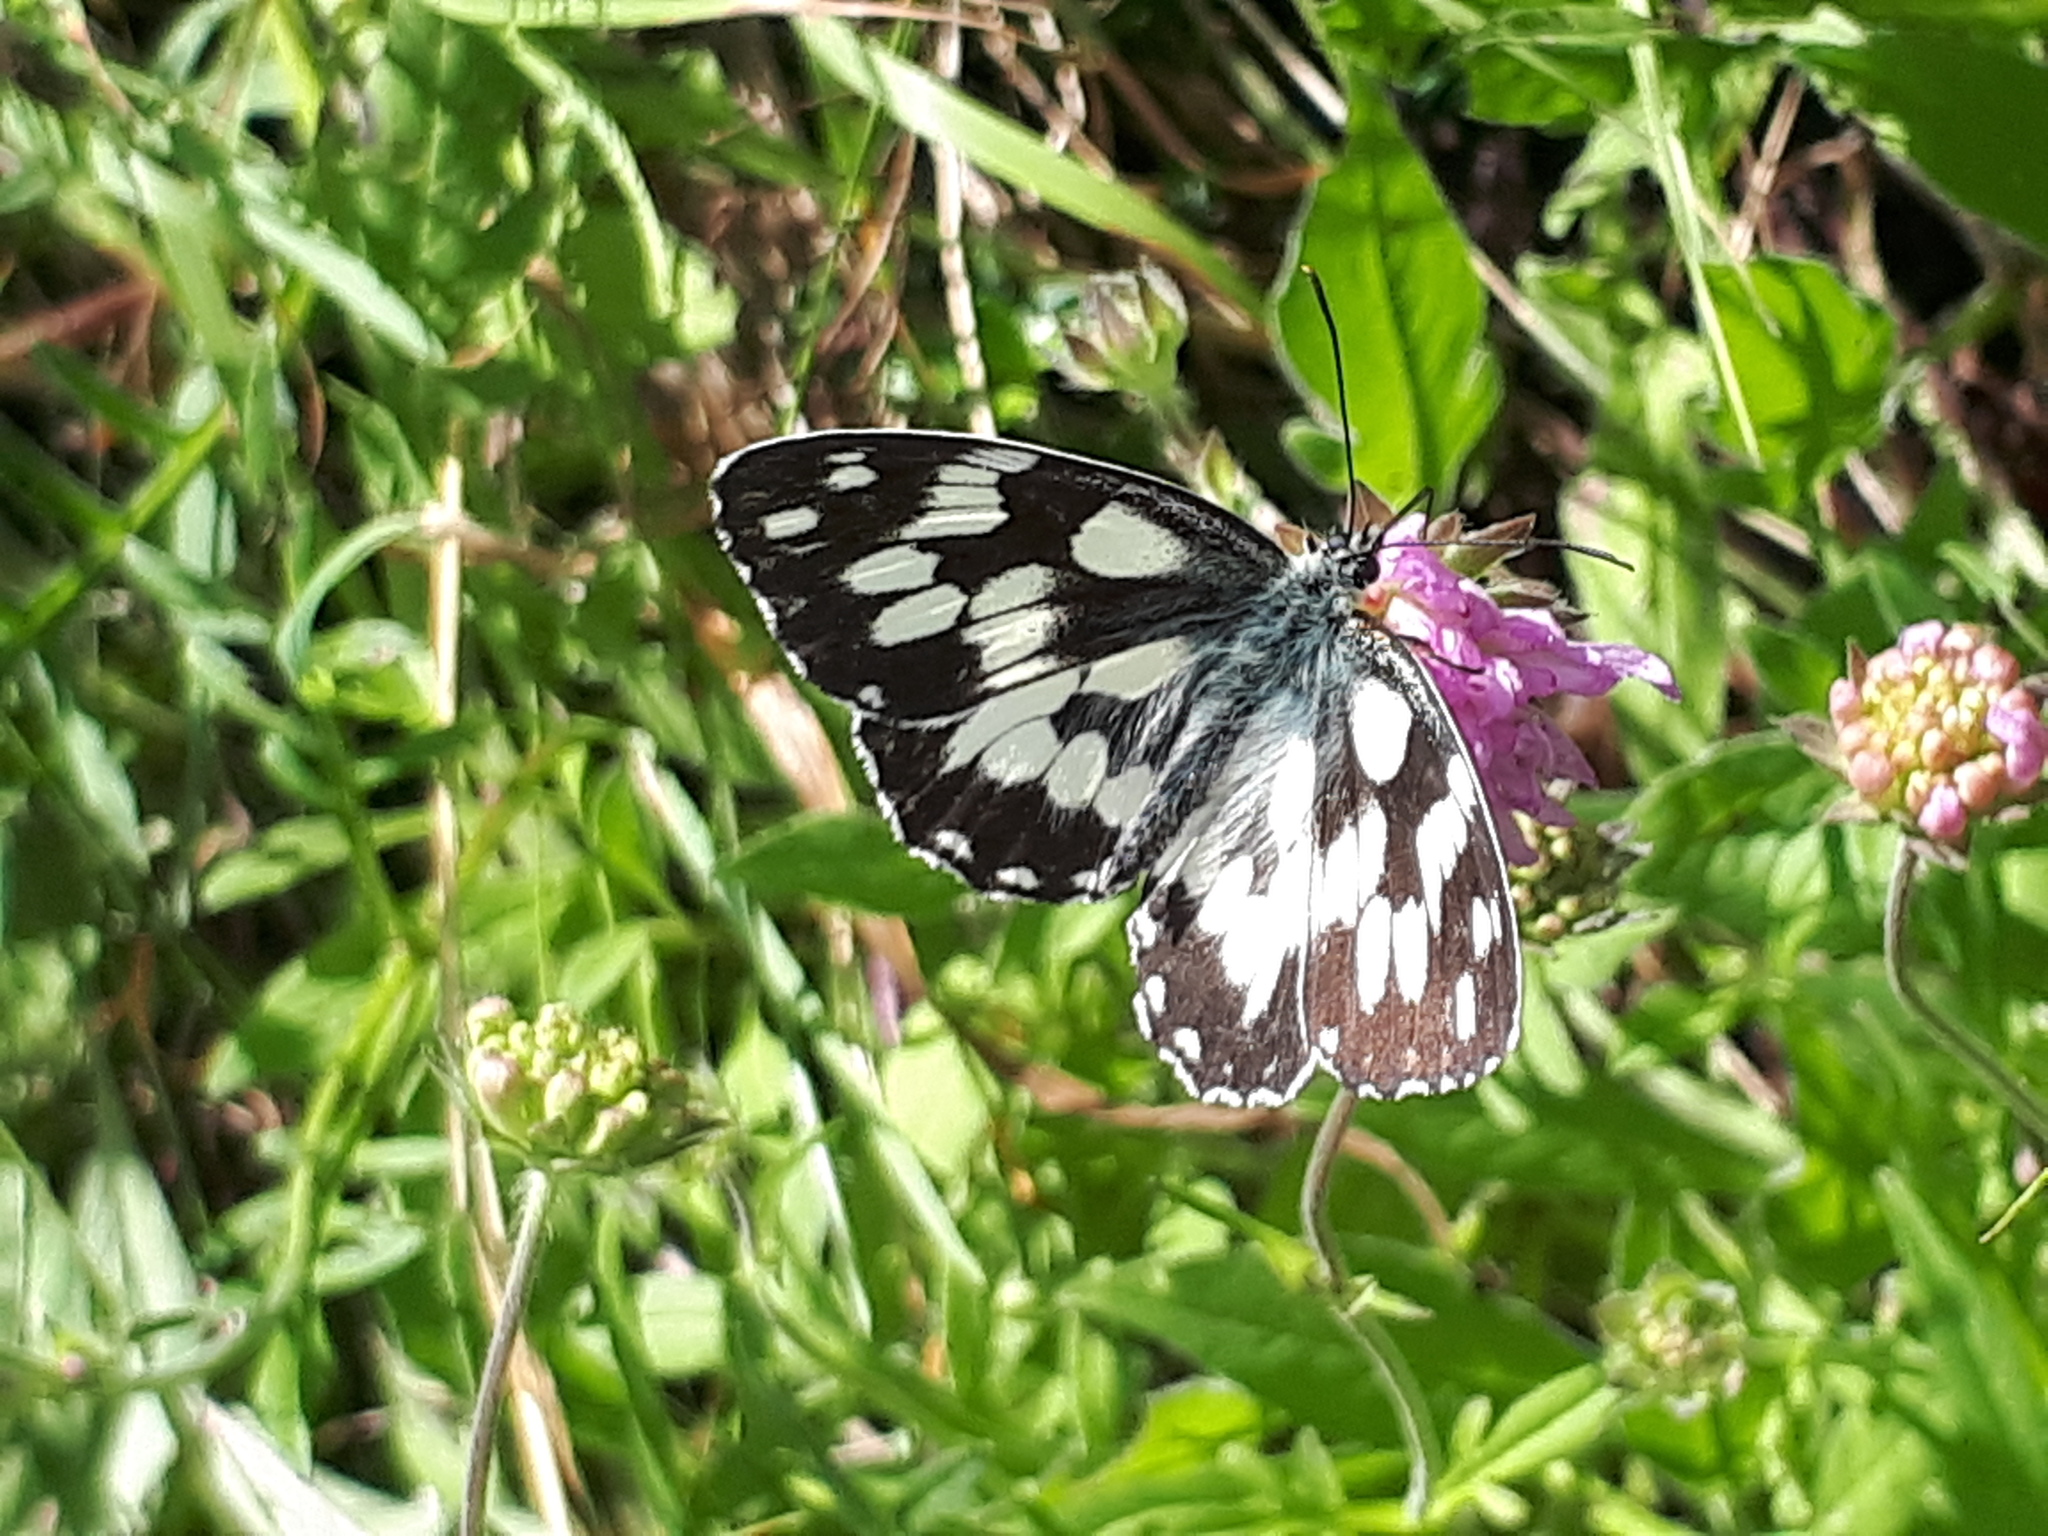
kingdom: Animalia
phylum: Arthropoda
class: Insecta
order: Lepidoptera
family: Nymphalidae
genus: Melanargia
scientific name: Melanargia galathea
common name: Marbled white
